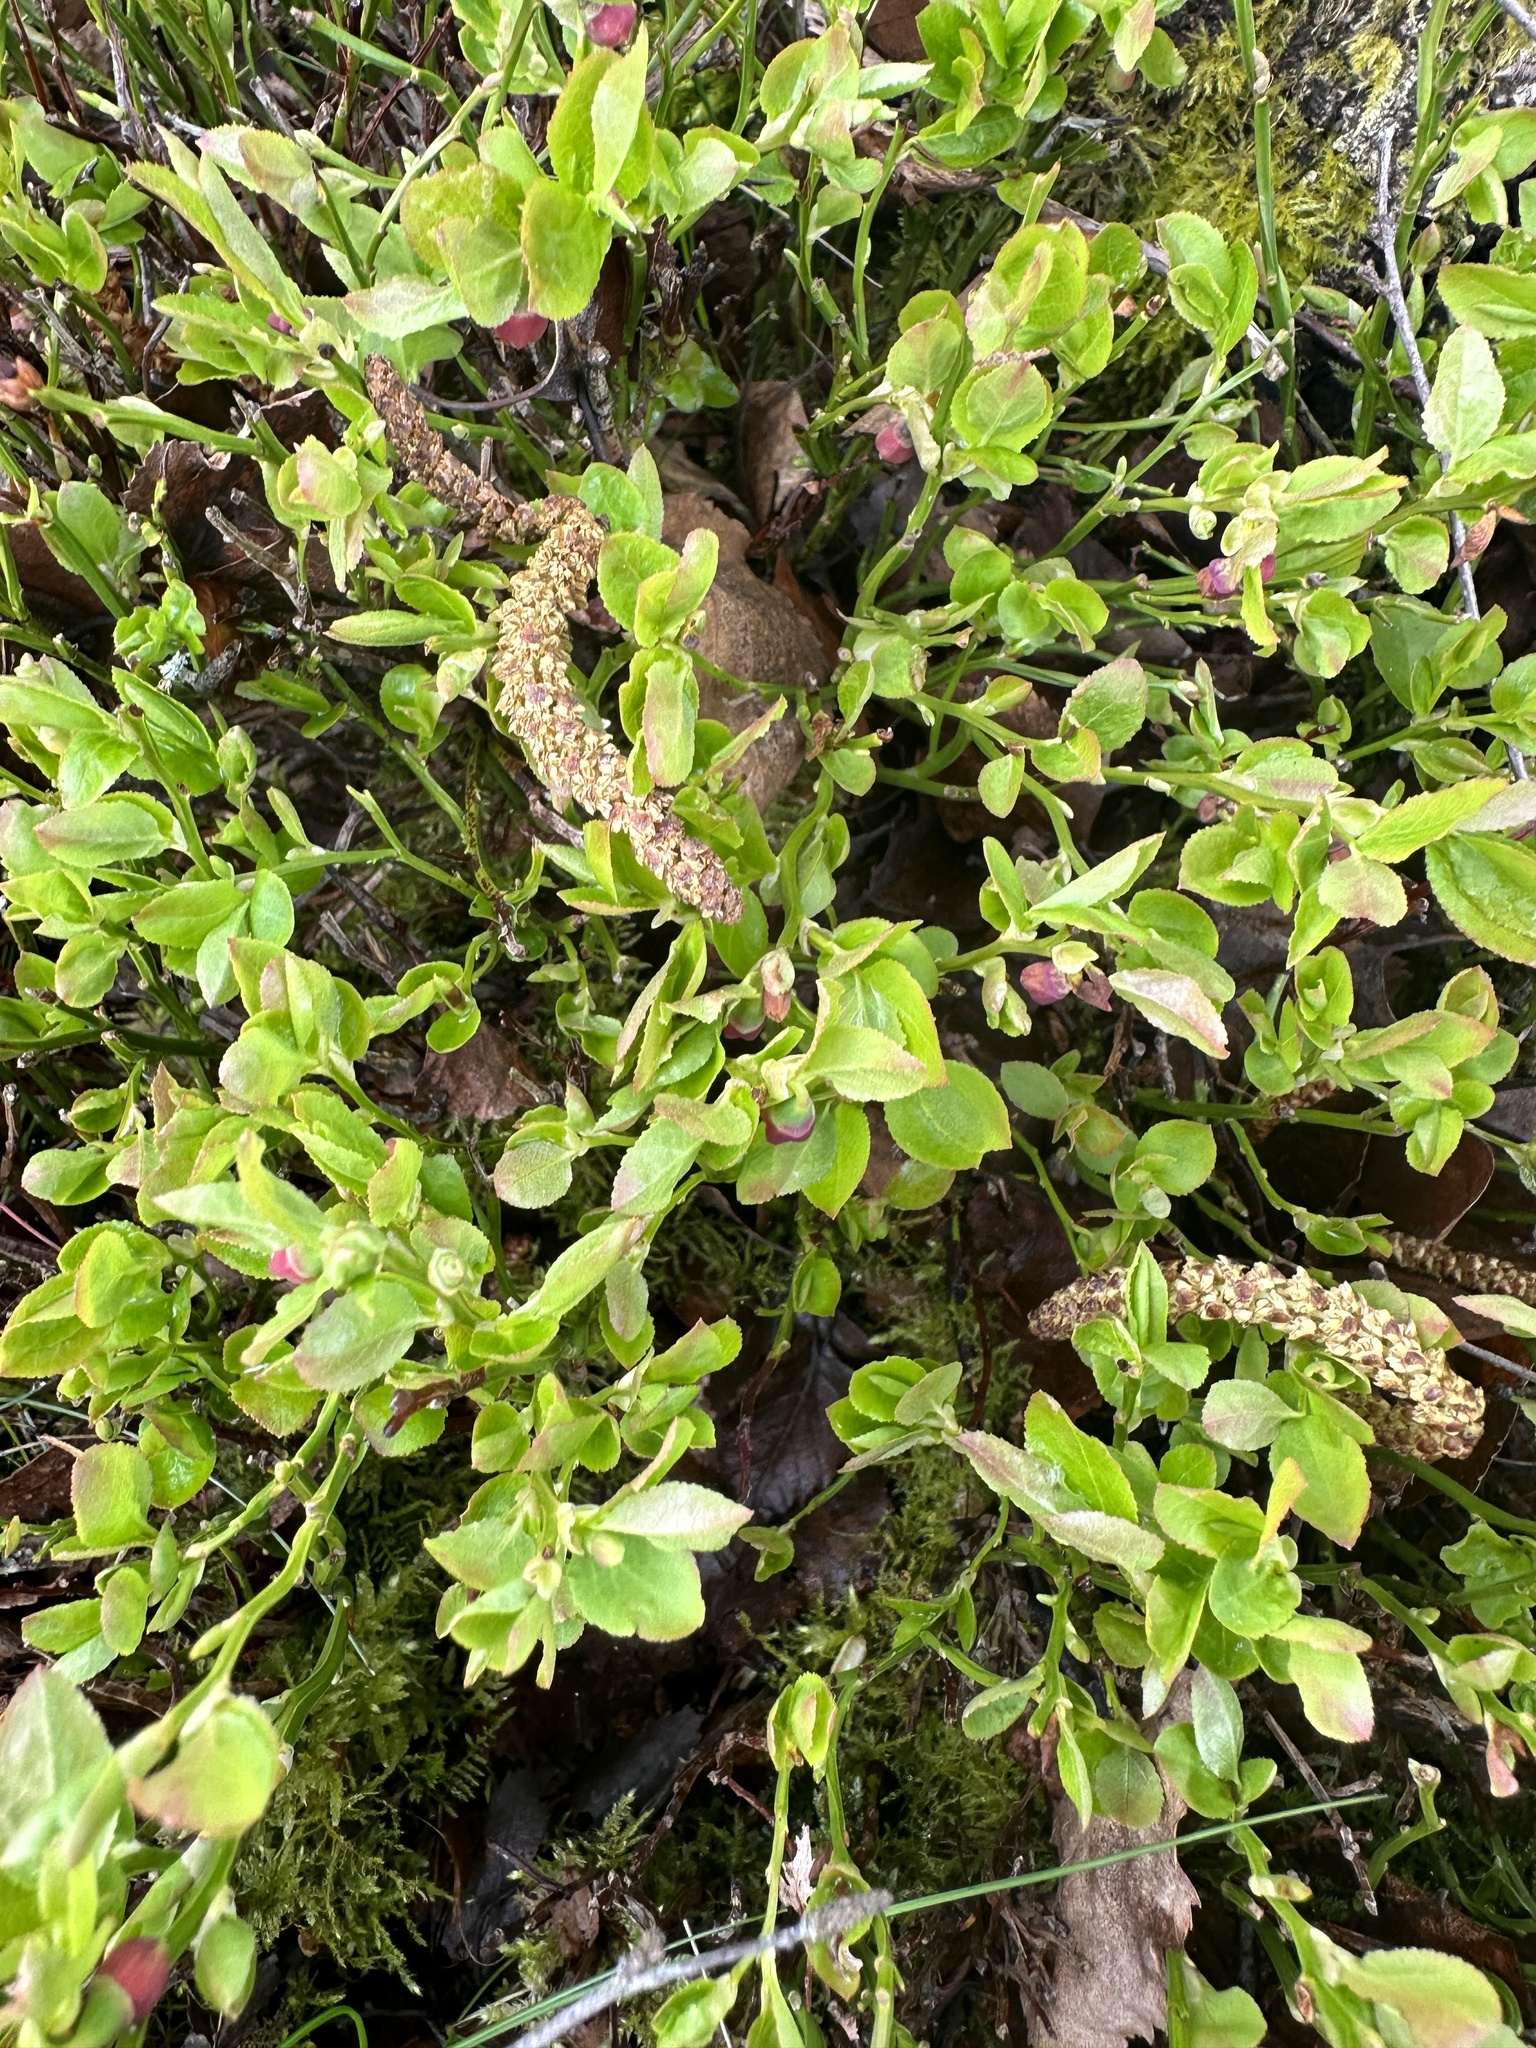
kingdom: Plantae
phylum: Tracheophyta
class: Magnoliopsida
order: Ericales
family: Ericaceae
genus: Vaccinium
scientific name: Vaccinium myrtillus
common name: Bilberry
